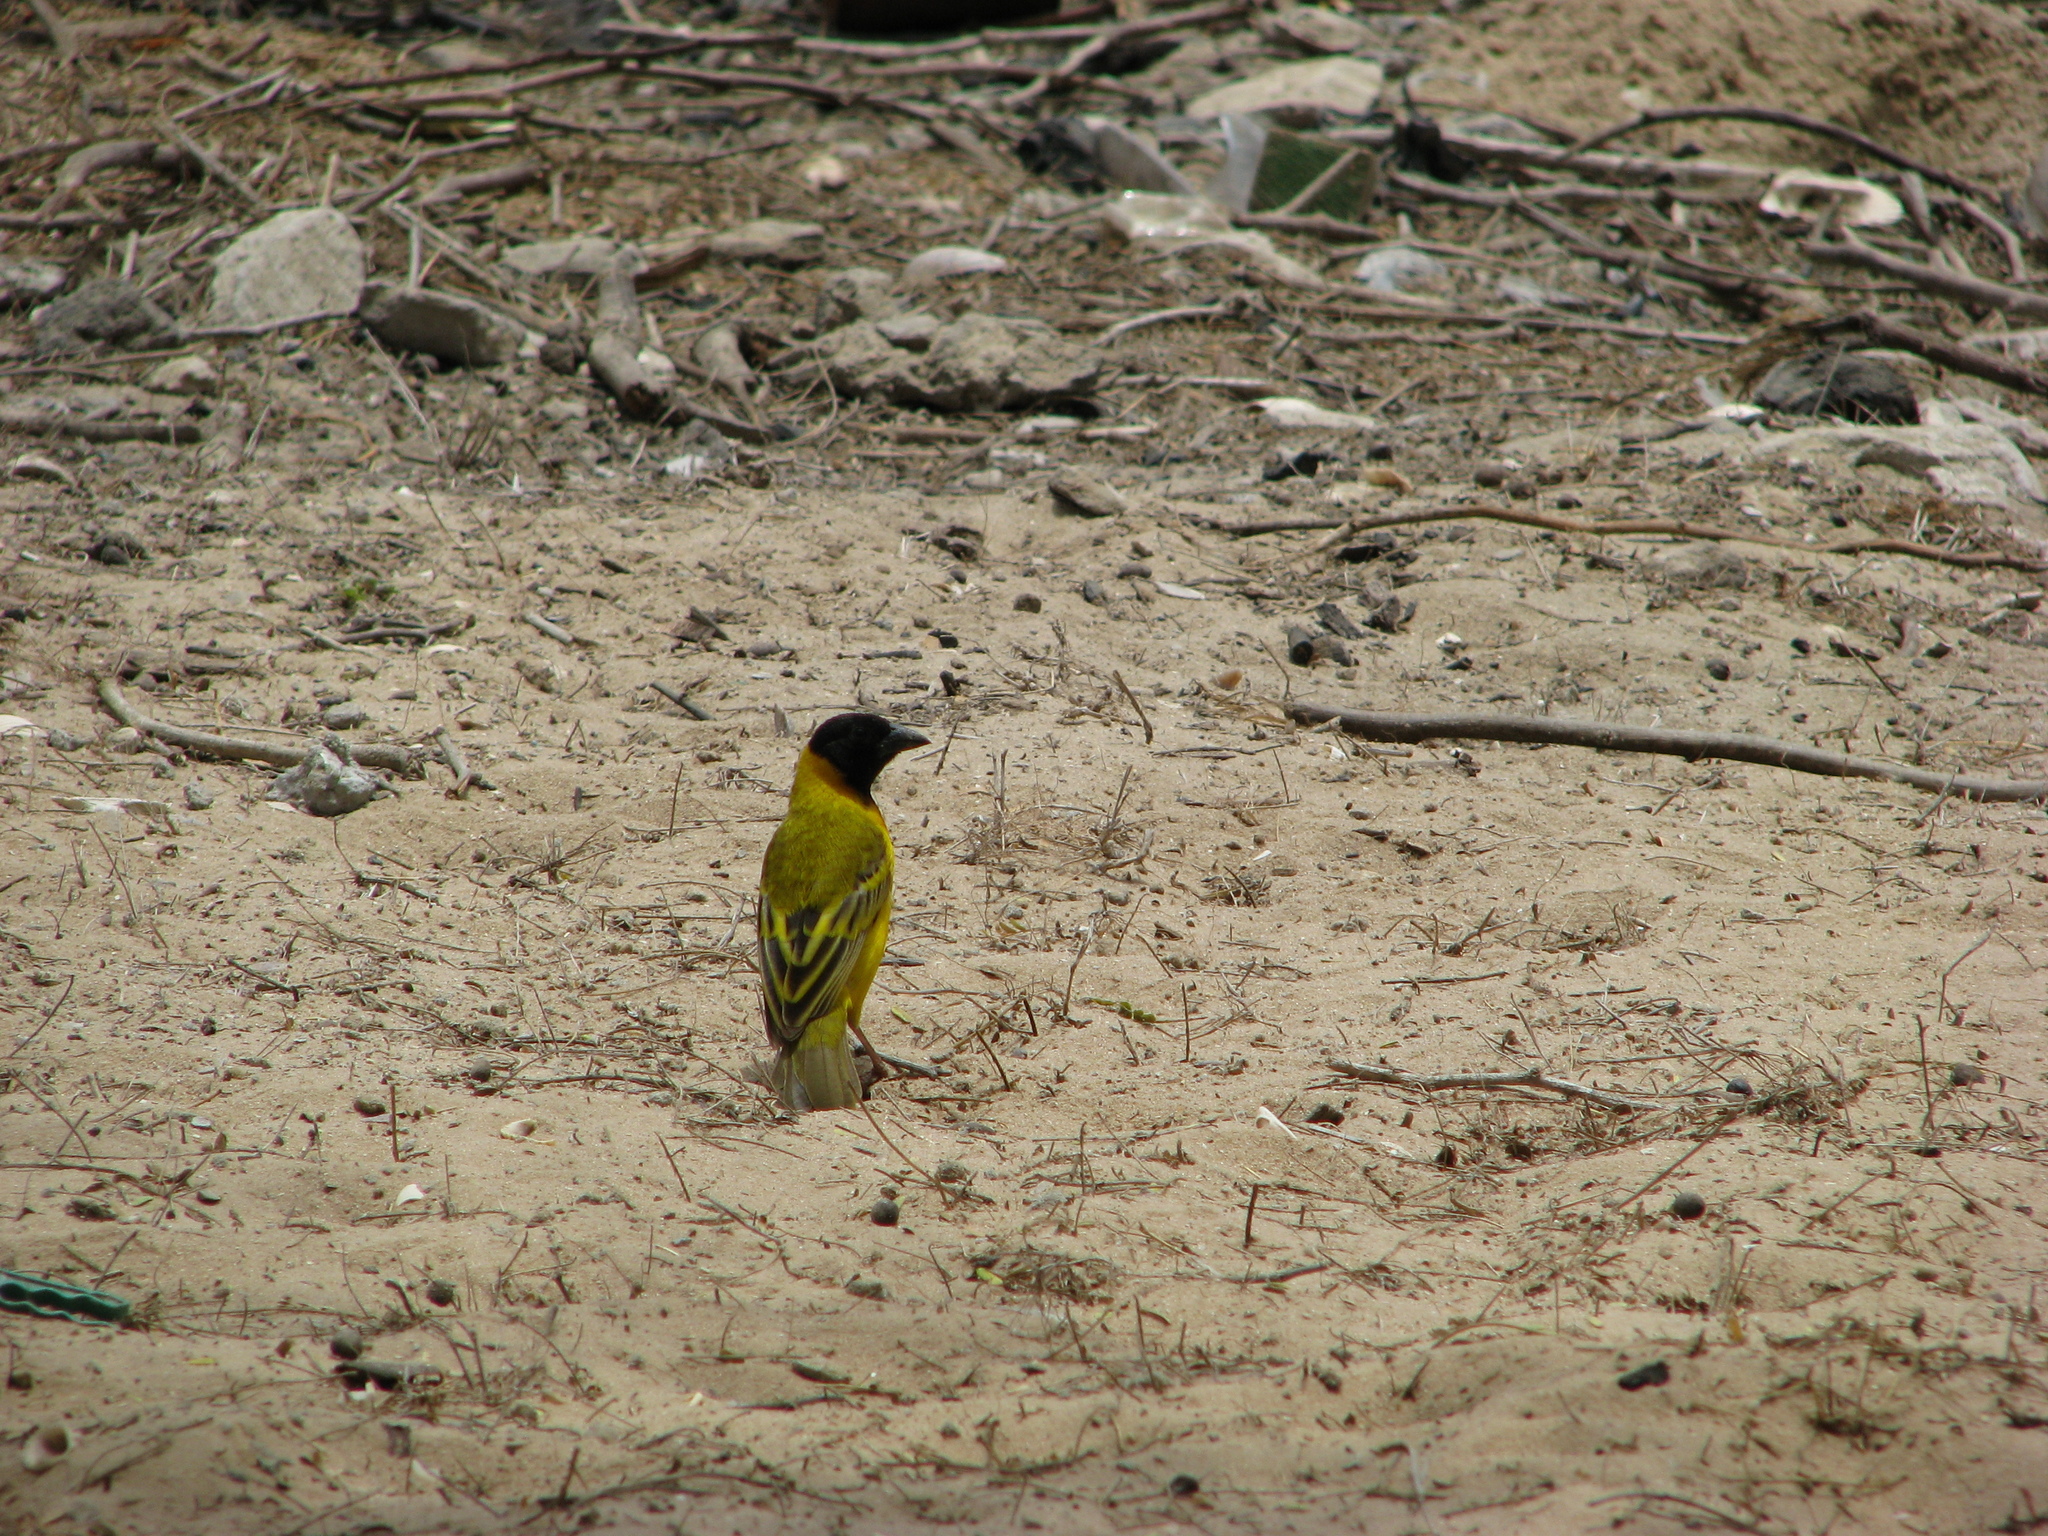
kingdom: Animalia
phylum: Chordata
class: Aves
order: Passeriformes
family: Ploceidae
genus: Ploceus
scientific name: Ploceus melanocephalus
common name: Black-headed weaver
